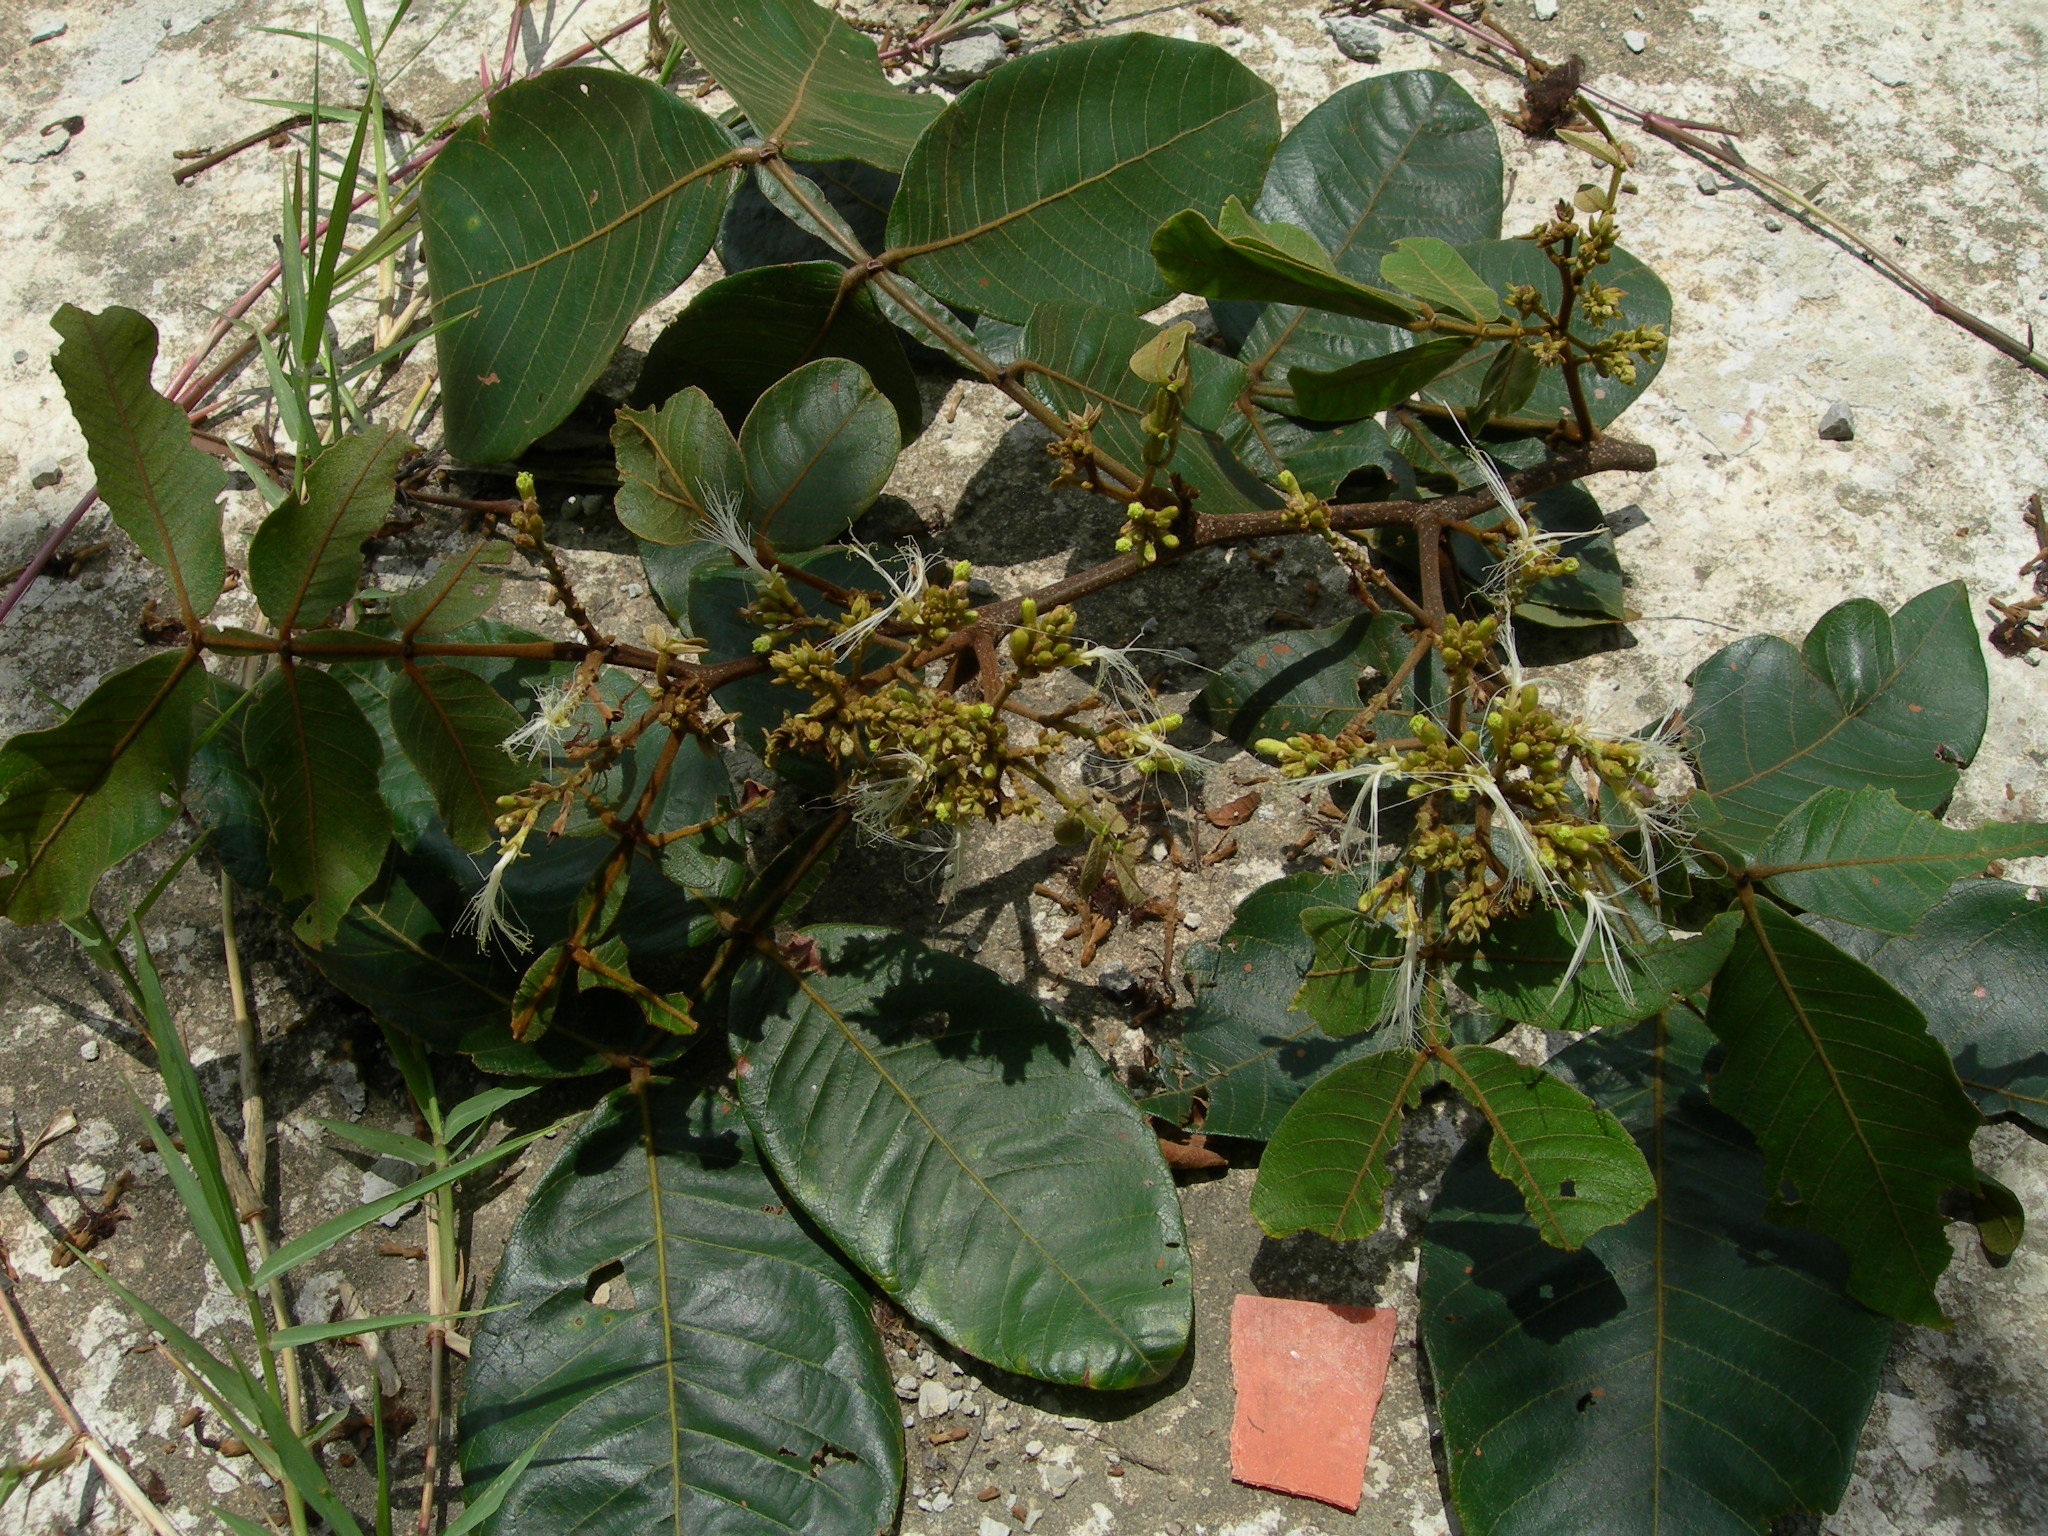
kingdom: Plantae
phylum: Tracheophyta
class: Magnoliopsida
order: Fabales
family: Fabaceae
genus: Inga
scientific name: Inga vera
